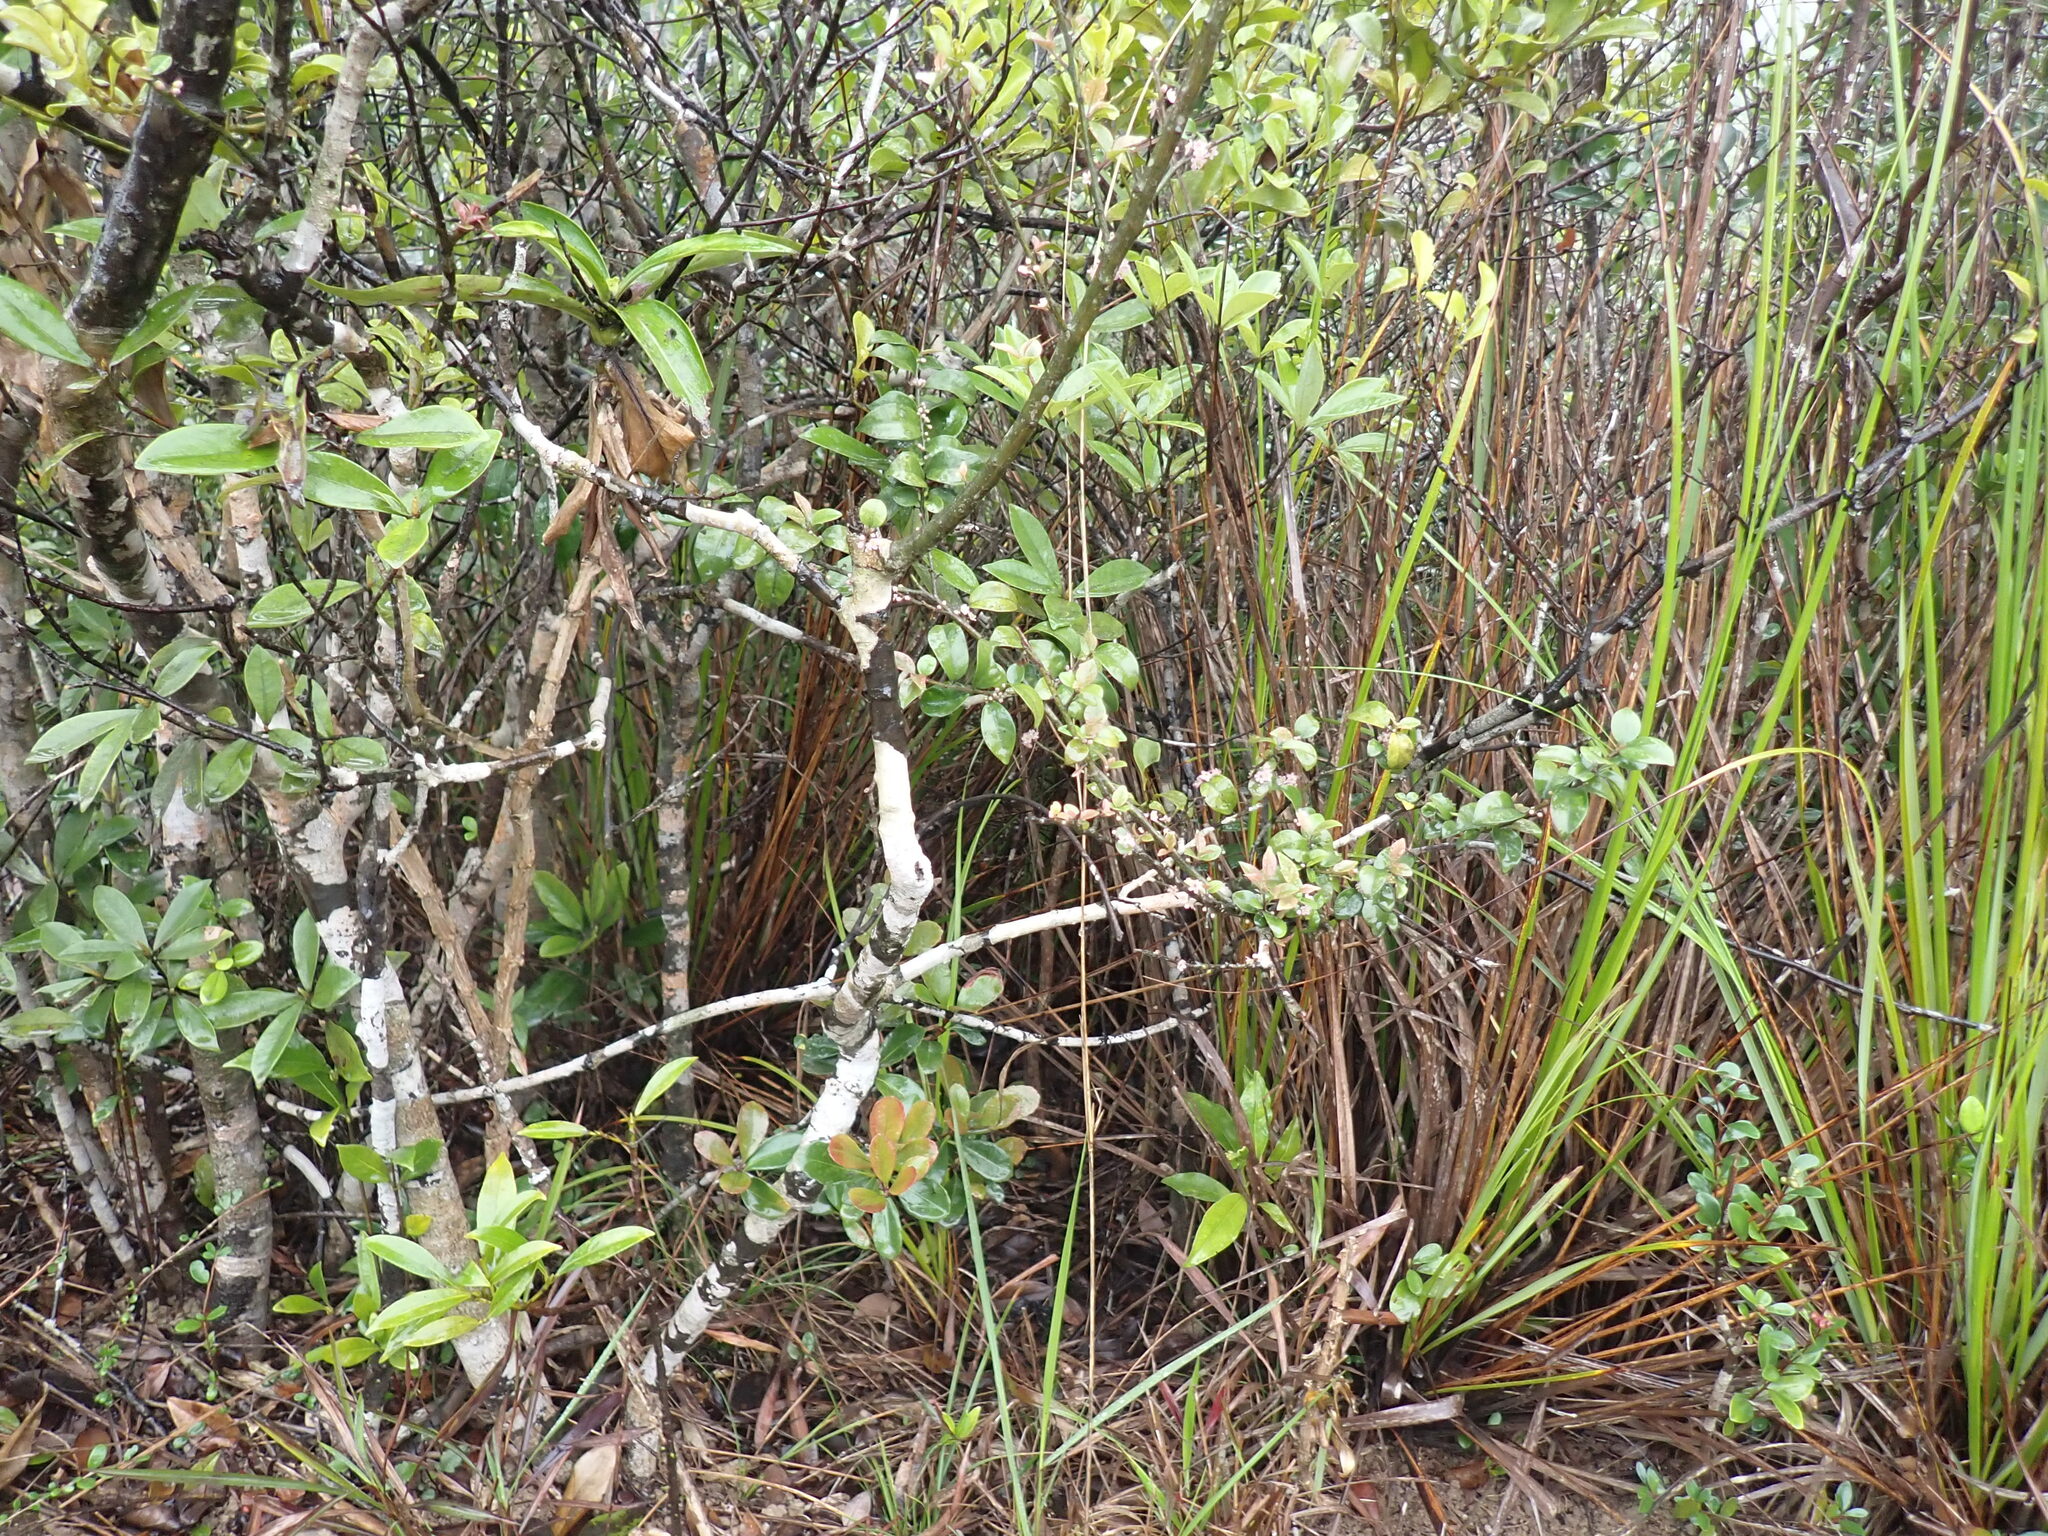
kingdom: Plantae
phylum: Tracheophyta
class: Magnoliopsida
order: Aquifoliales
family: Aquifoliaceae
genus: Ilex
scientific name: Ilex pubescens
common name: Pubescent holly
